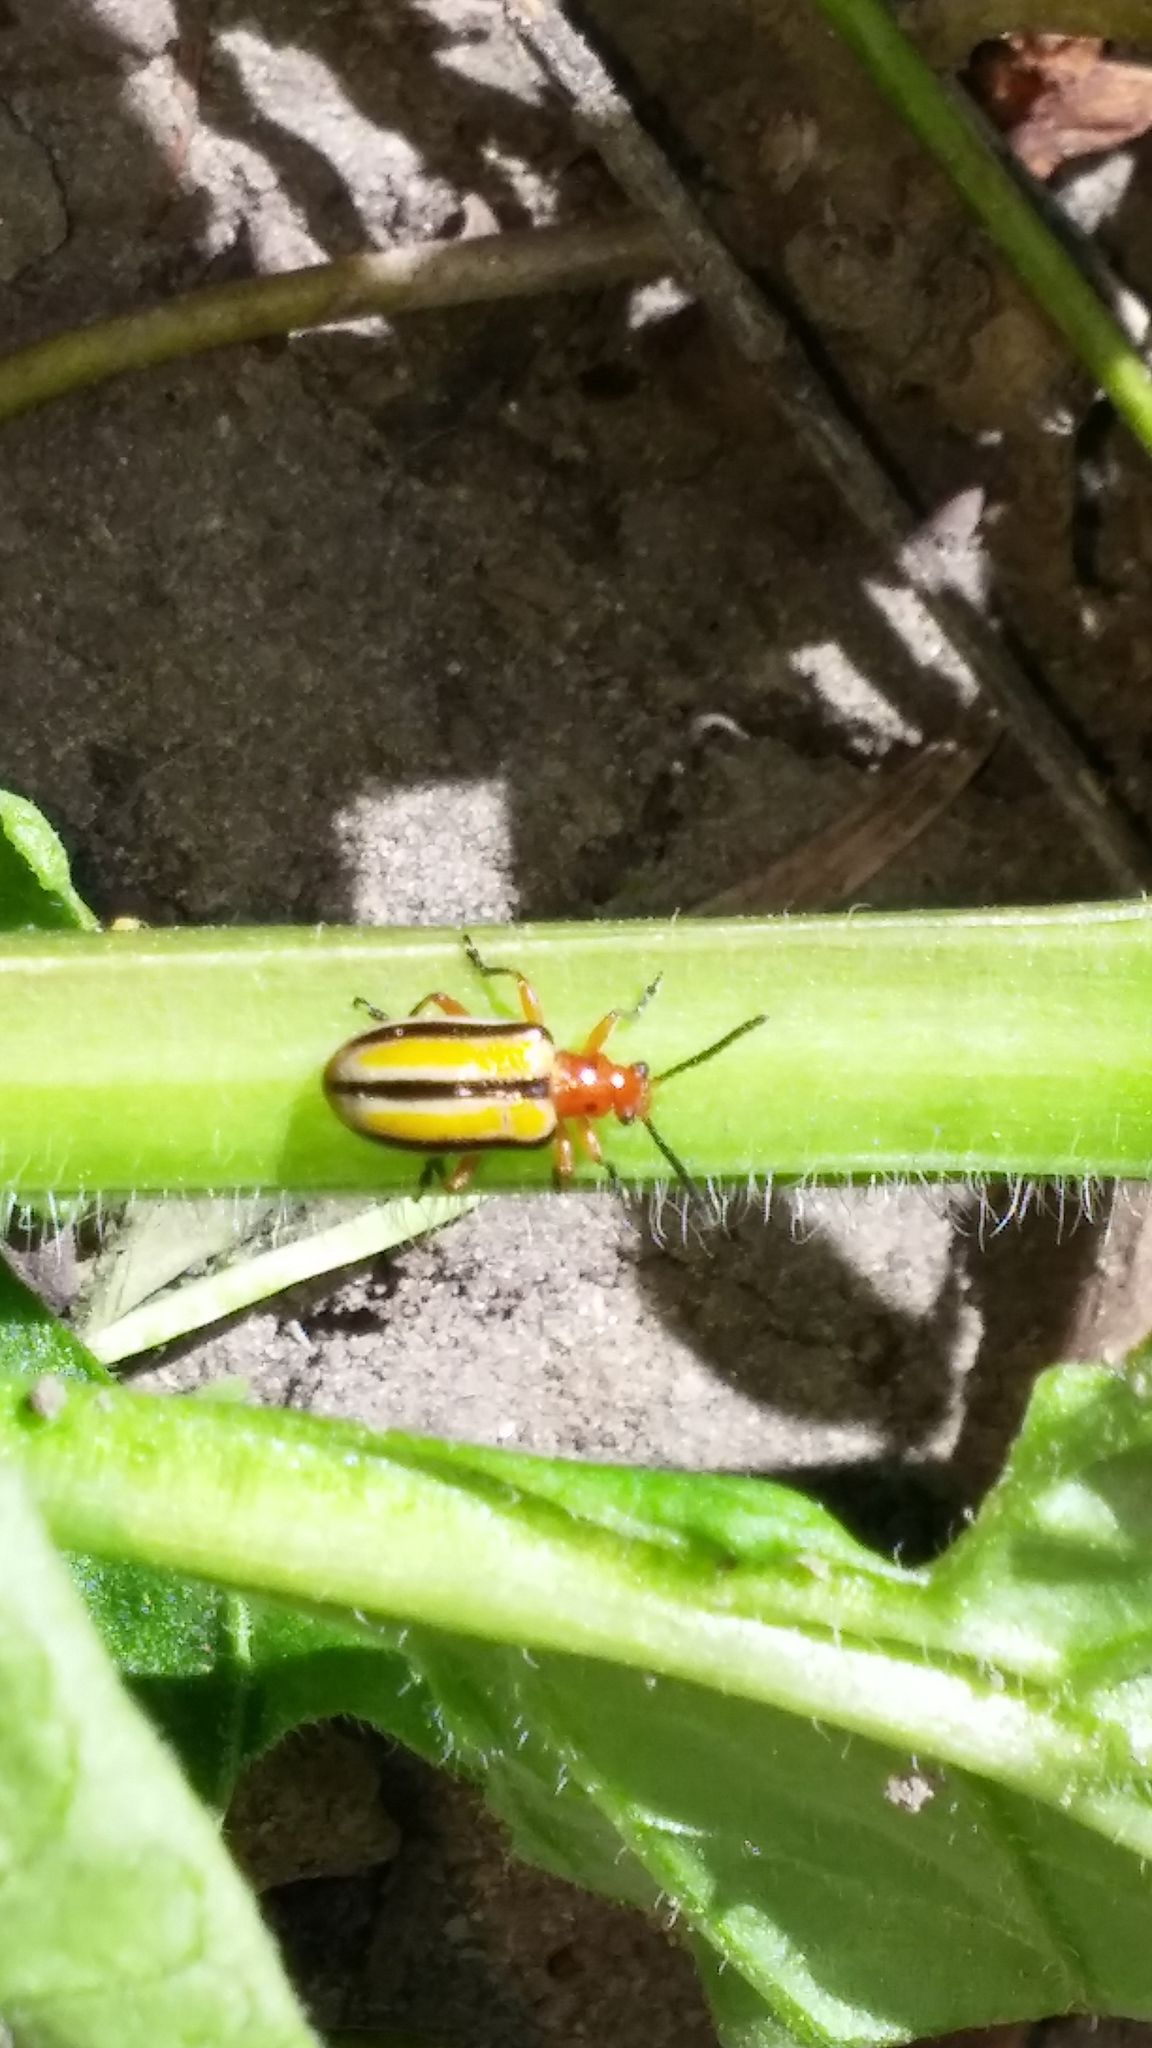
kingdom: Animalia
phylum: Arthropoda
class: Insecta
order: Coleoptera
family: Chrysomelidae
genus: Lema
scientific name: Lema daturaphila
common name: Leaf beetle
